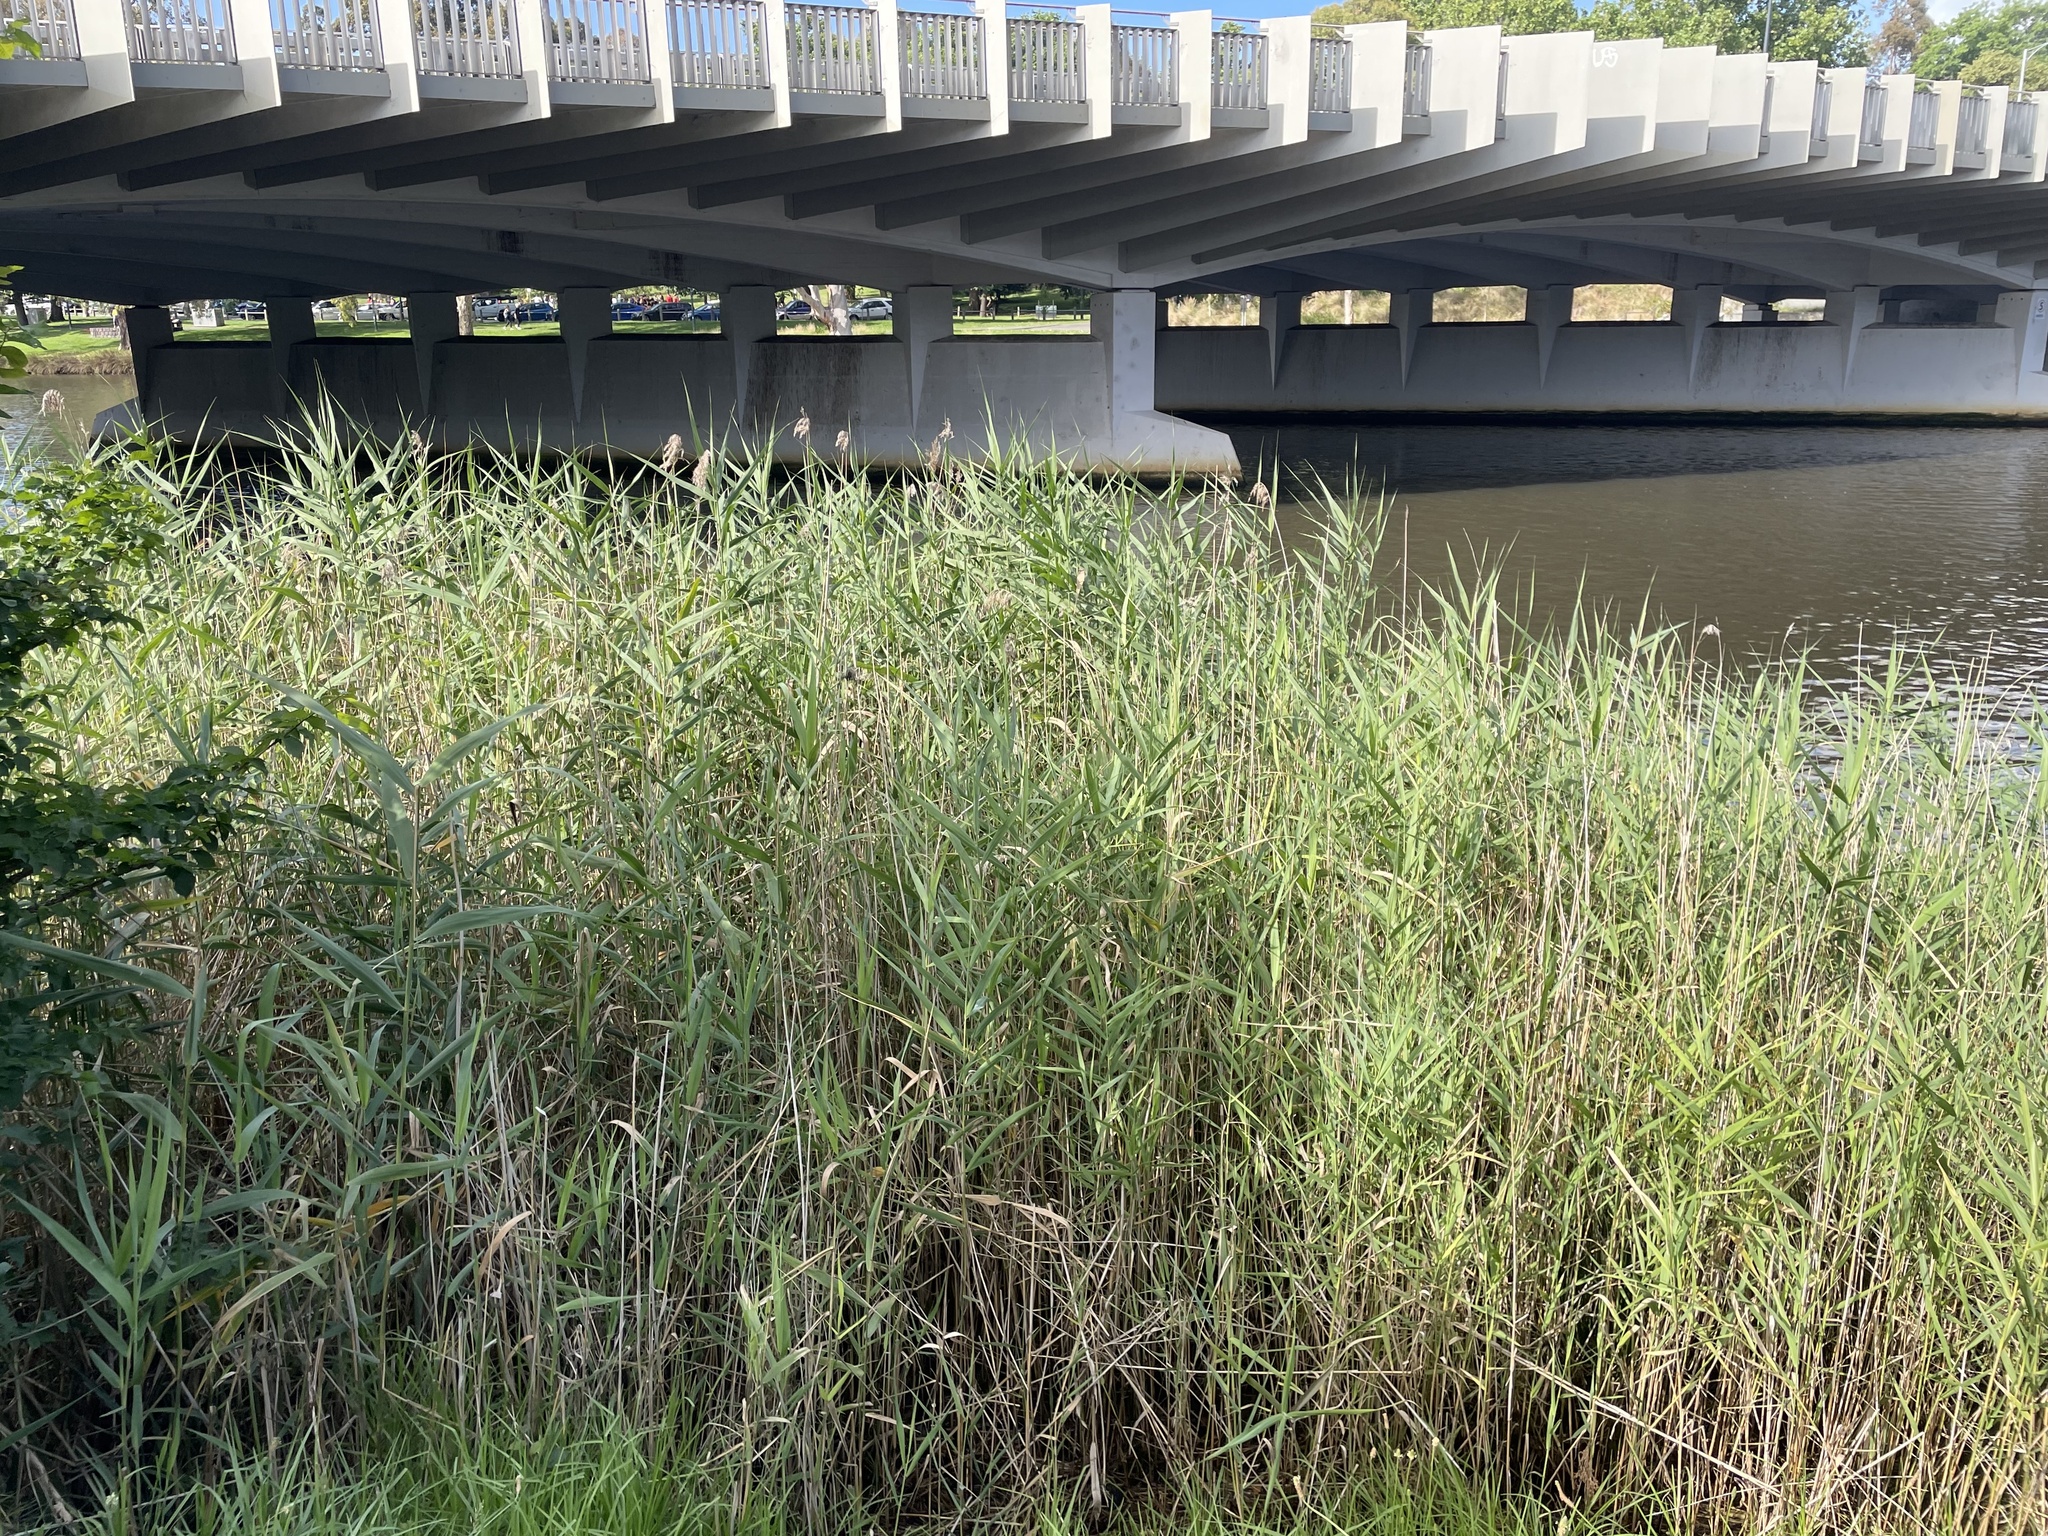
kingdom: Plantae
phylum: Tracheophyta
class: Liliopsida
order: Poales
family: Poaceae
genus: Phragmites
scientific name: Phragmites australis
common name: Common reed
